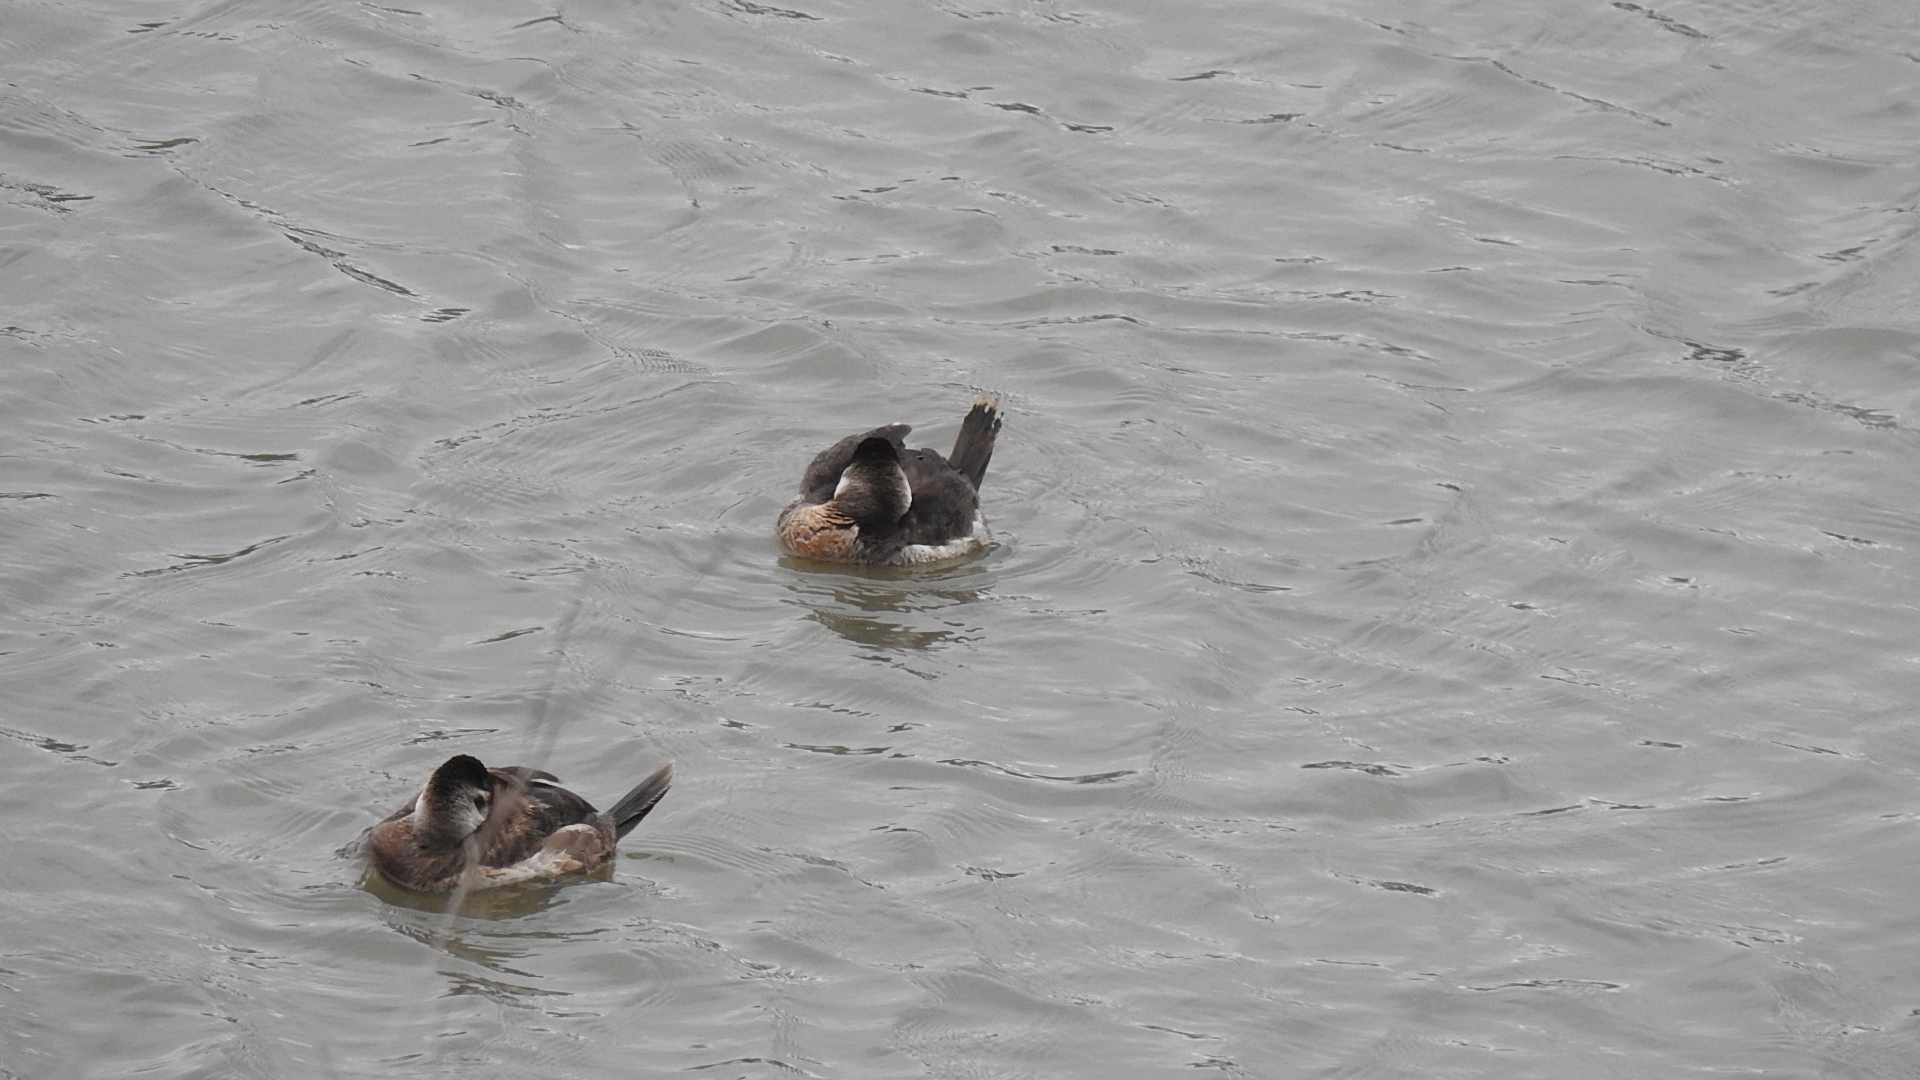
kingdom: Animalia
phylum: Chordata
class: Aves
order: Anseriformes
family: Anatidae
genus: Oxyura
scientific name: Oxyura jamaicensis
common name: Ruddy duck
